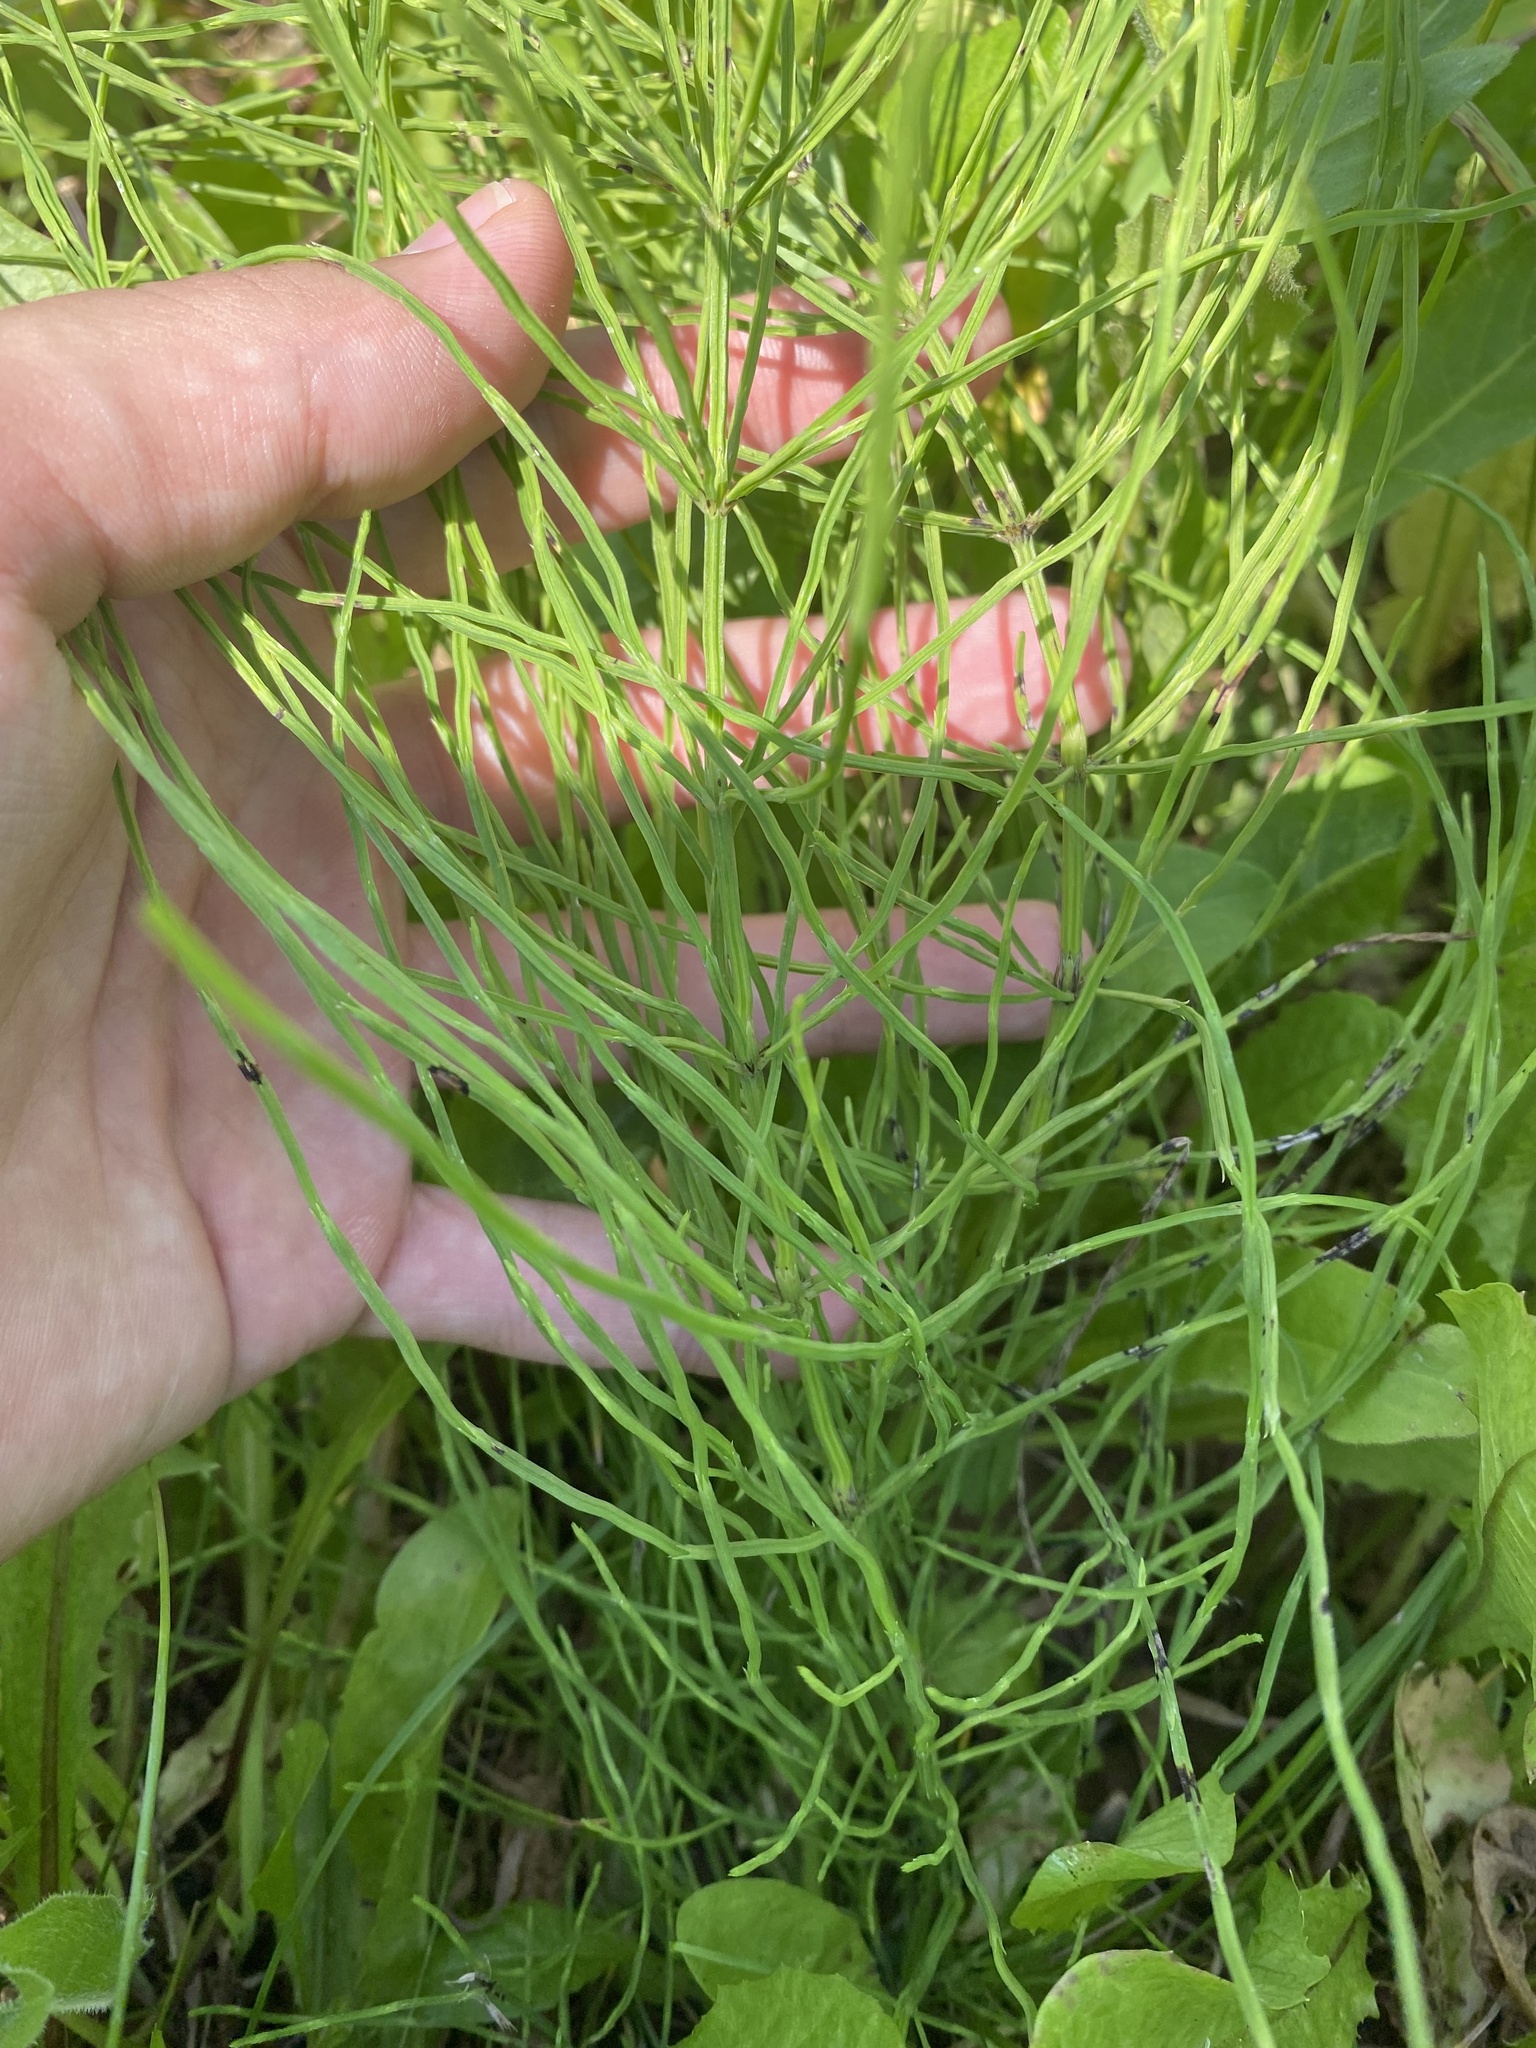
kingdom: Plantae
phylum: Tracheophyta
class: Polypodiopsida
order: Equisetales
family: Equisetaceae
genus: Equisetum
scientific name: Equisetum arvense
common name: Field horsetail
